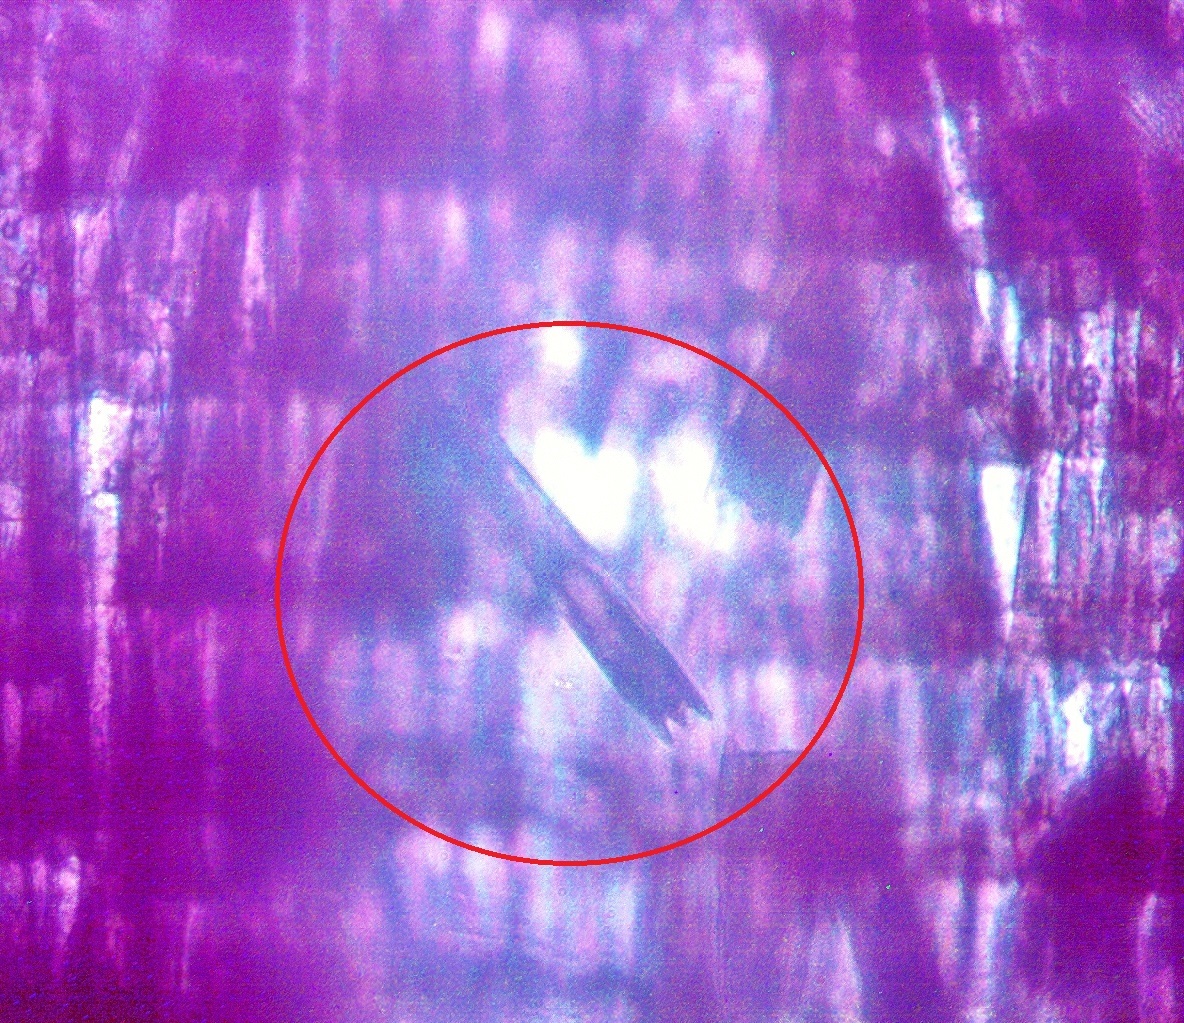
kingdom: Animalia
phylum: Arthropoda
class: Insecta
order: Lepidoptera
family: Lycaenidae
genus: Celastrina
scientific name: Celastrina ladon
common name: Spring azure
